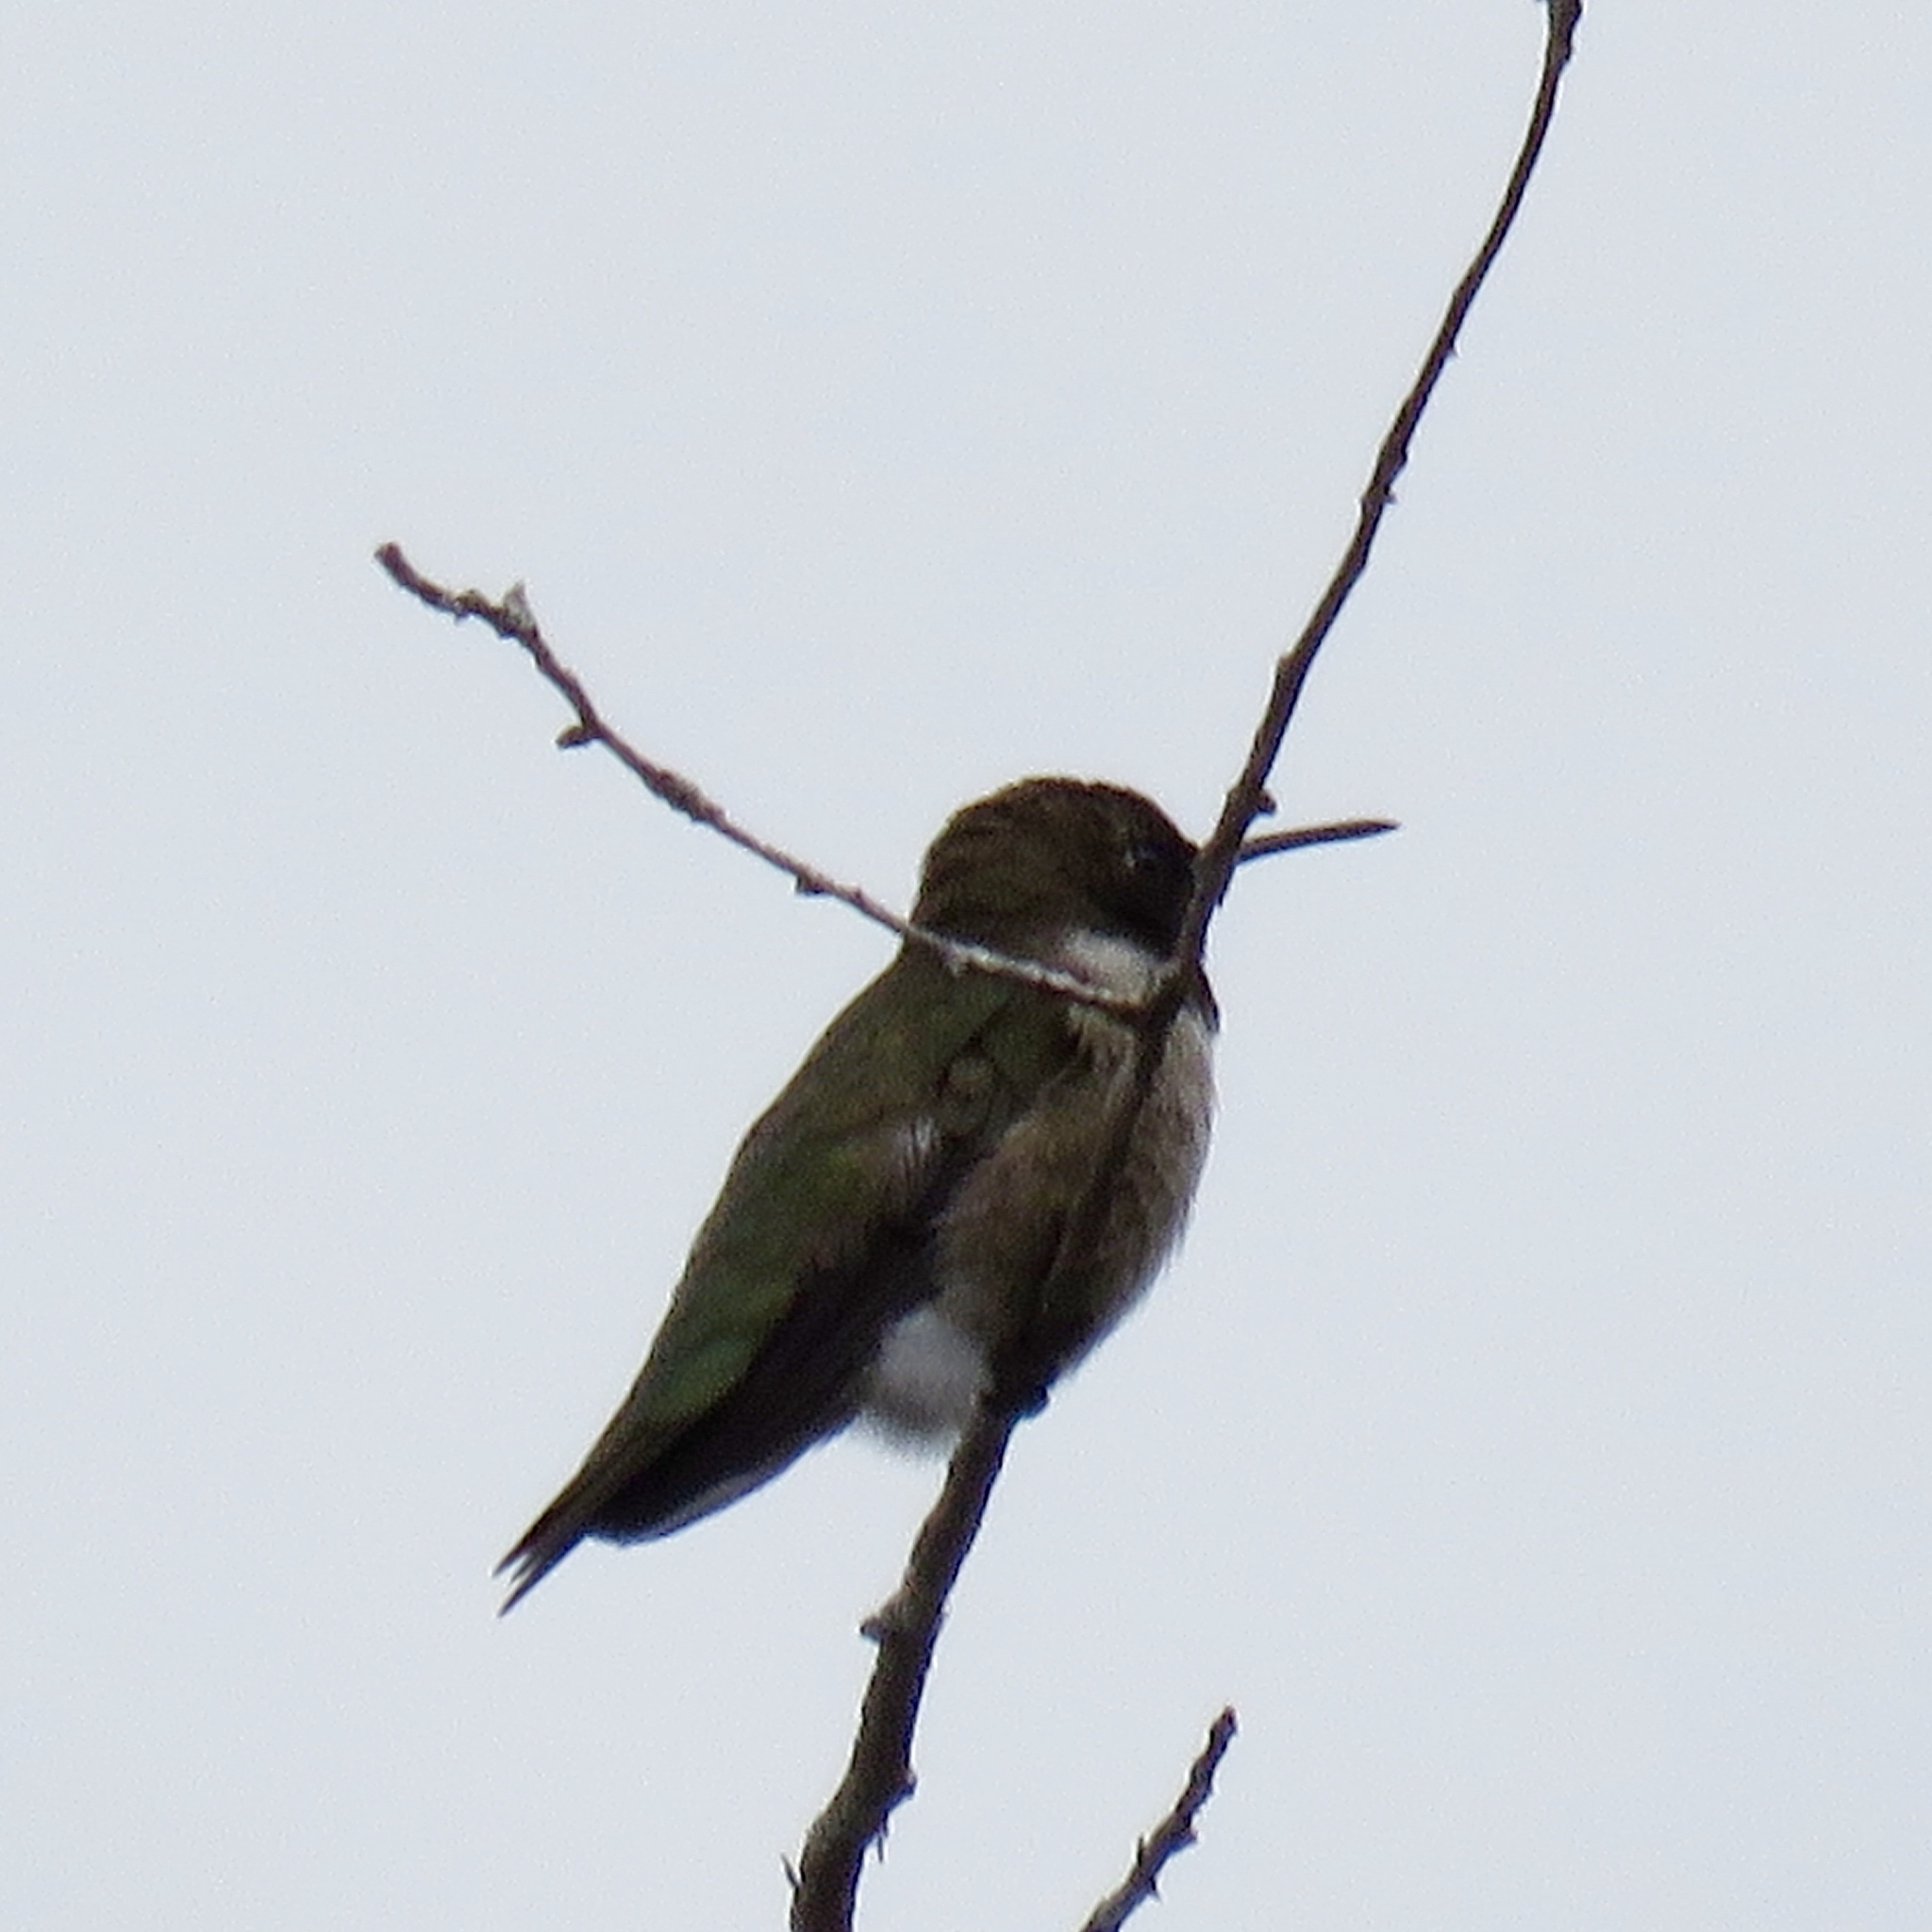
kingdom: Animalia
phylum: Chordata
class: Aves
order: Apodiformes
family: Trochilidae
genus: Archilochus
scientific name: Archilochus alexandri
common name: Black-chinned hummingbird
